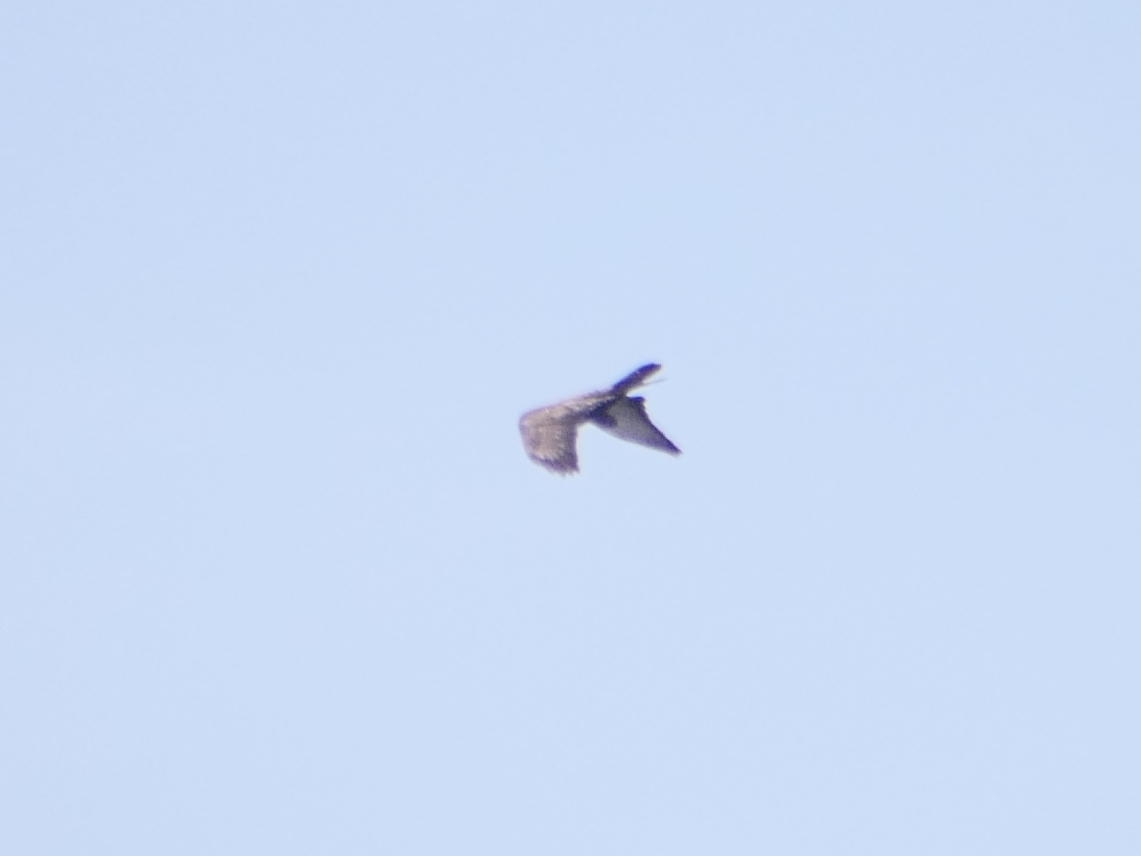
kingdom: Animalia
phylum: Chordata
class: Aves
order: Accipitriformes
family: Accipitridae
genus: Buteo
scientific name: Buteo buteo
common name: Common buzzard
